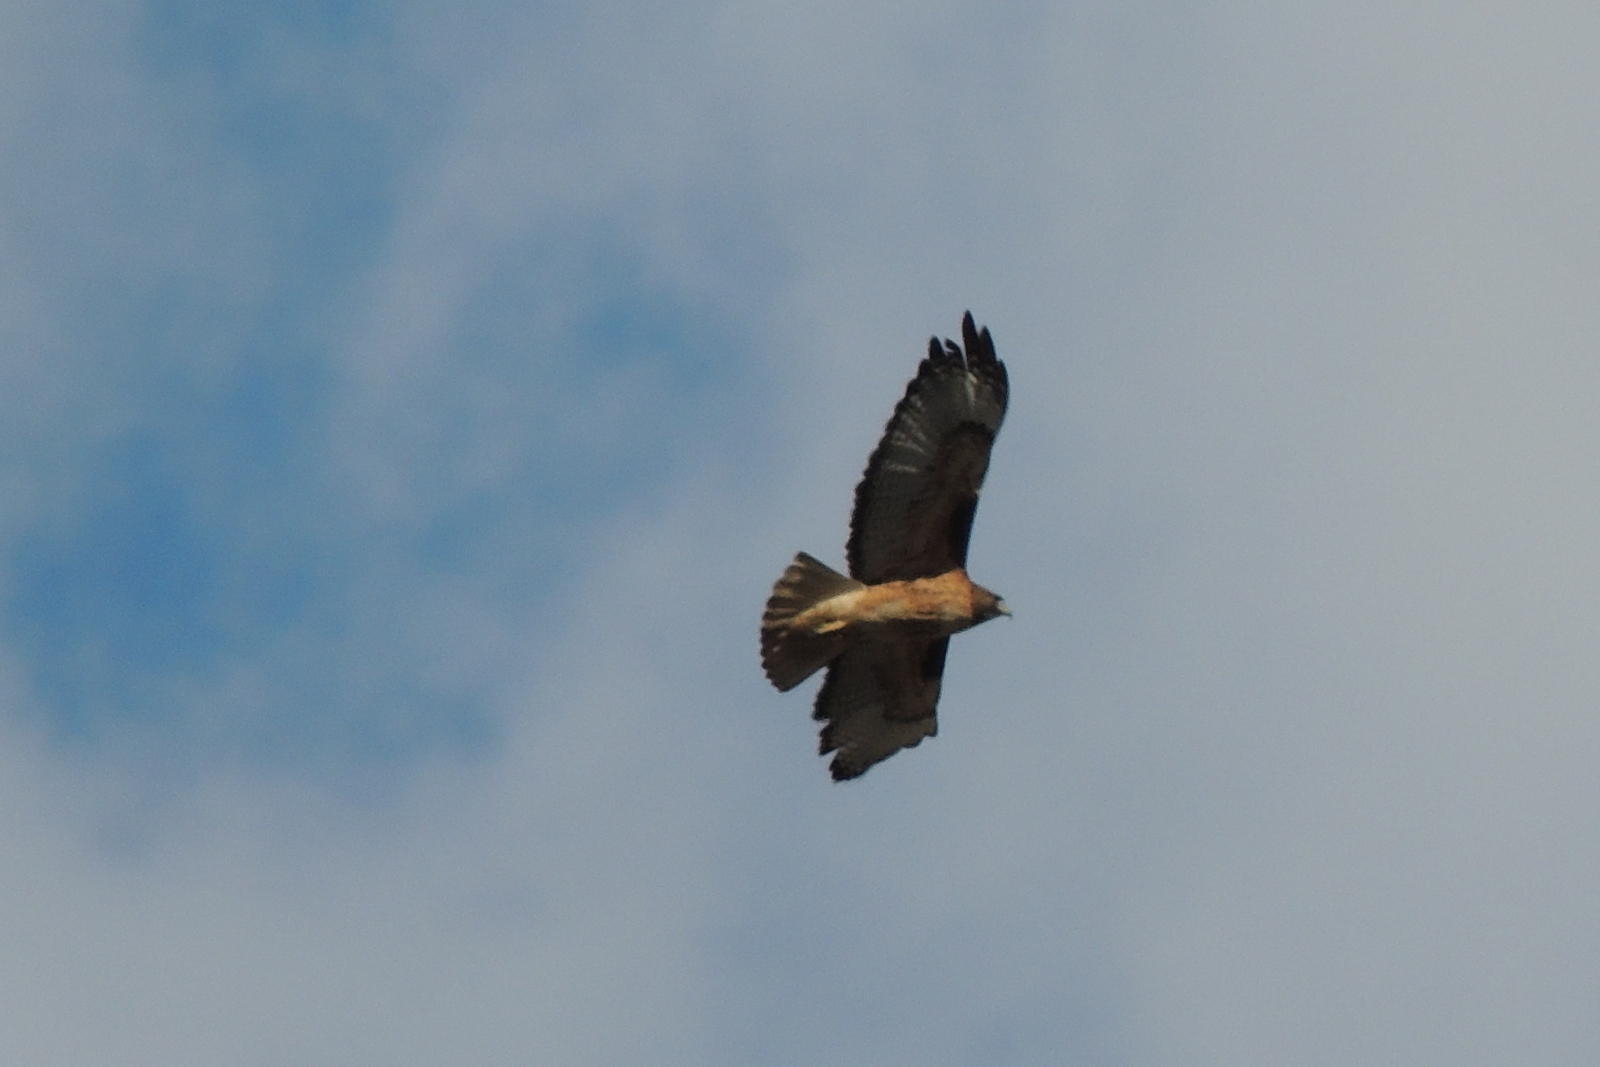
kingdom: Animalia
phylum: Chordata
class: Aves
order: Accipitriformes
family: Accipitridae
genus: Buteo
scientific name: Buteo jamaicensis
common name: Red-tailed hawk
